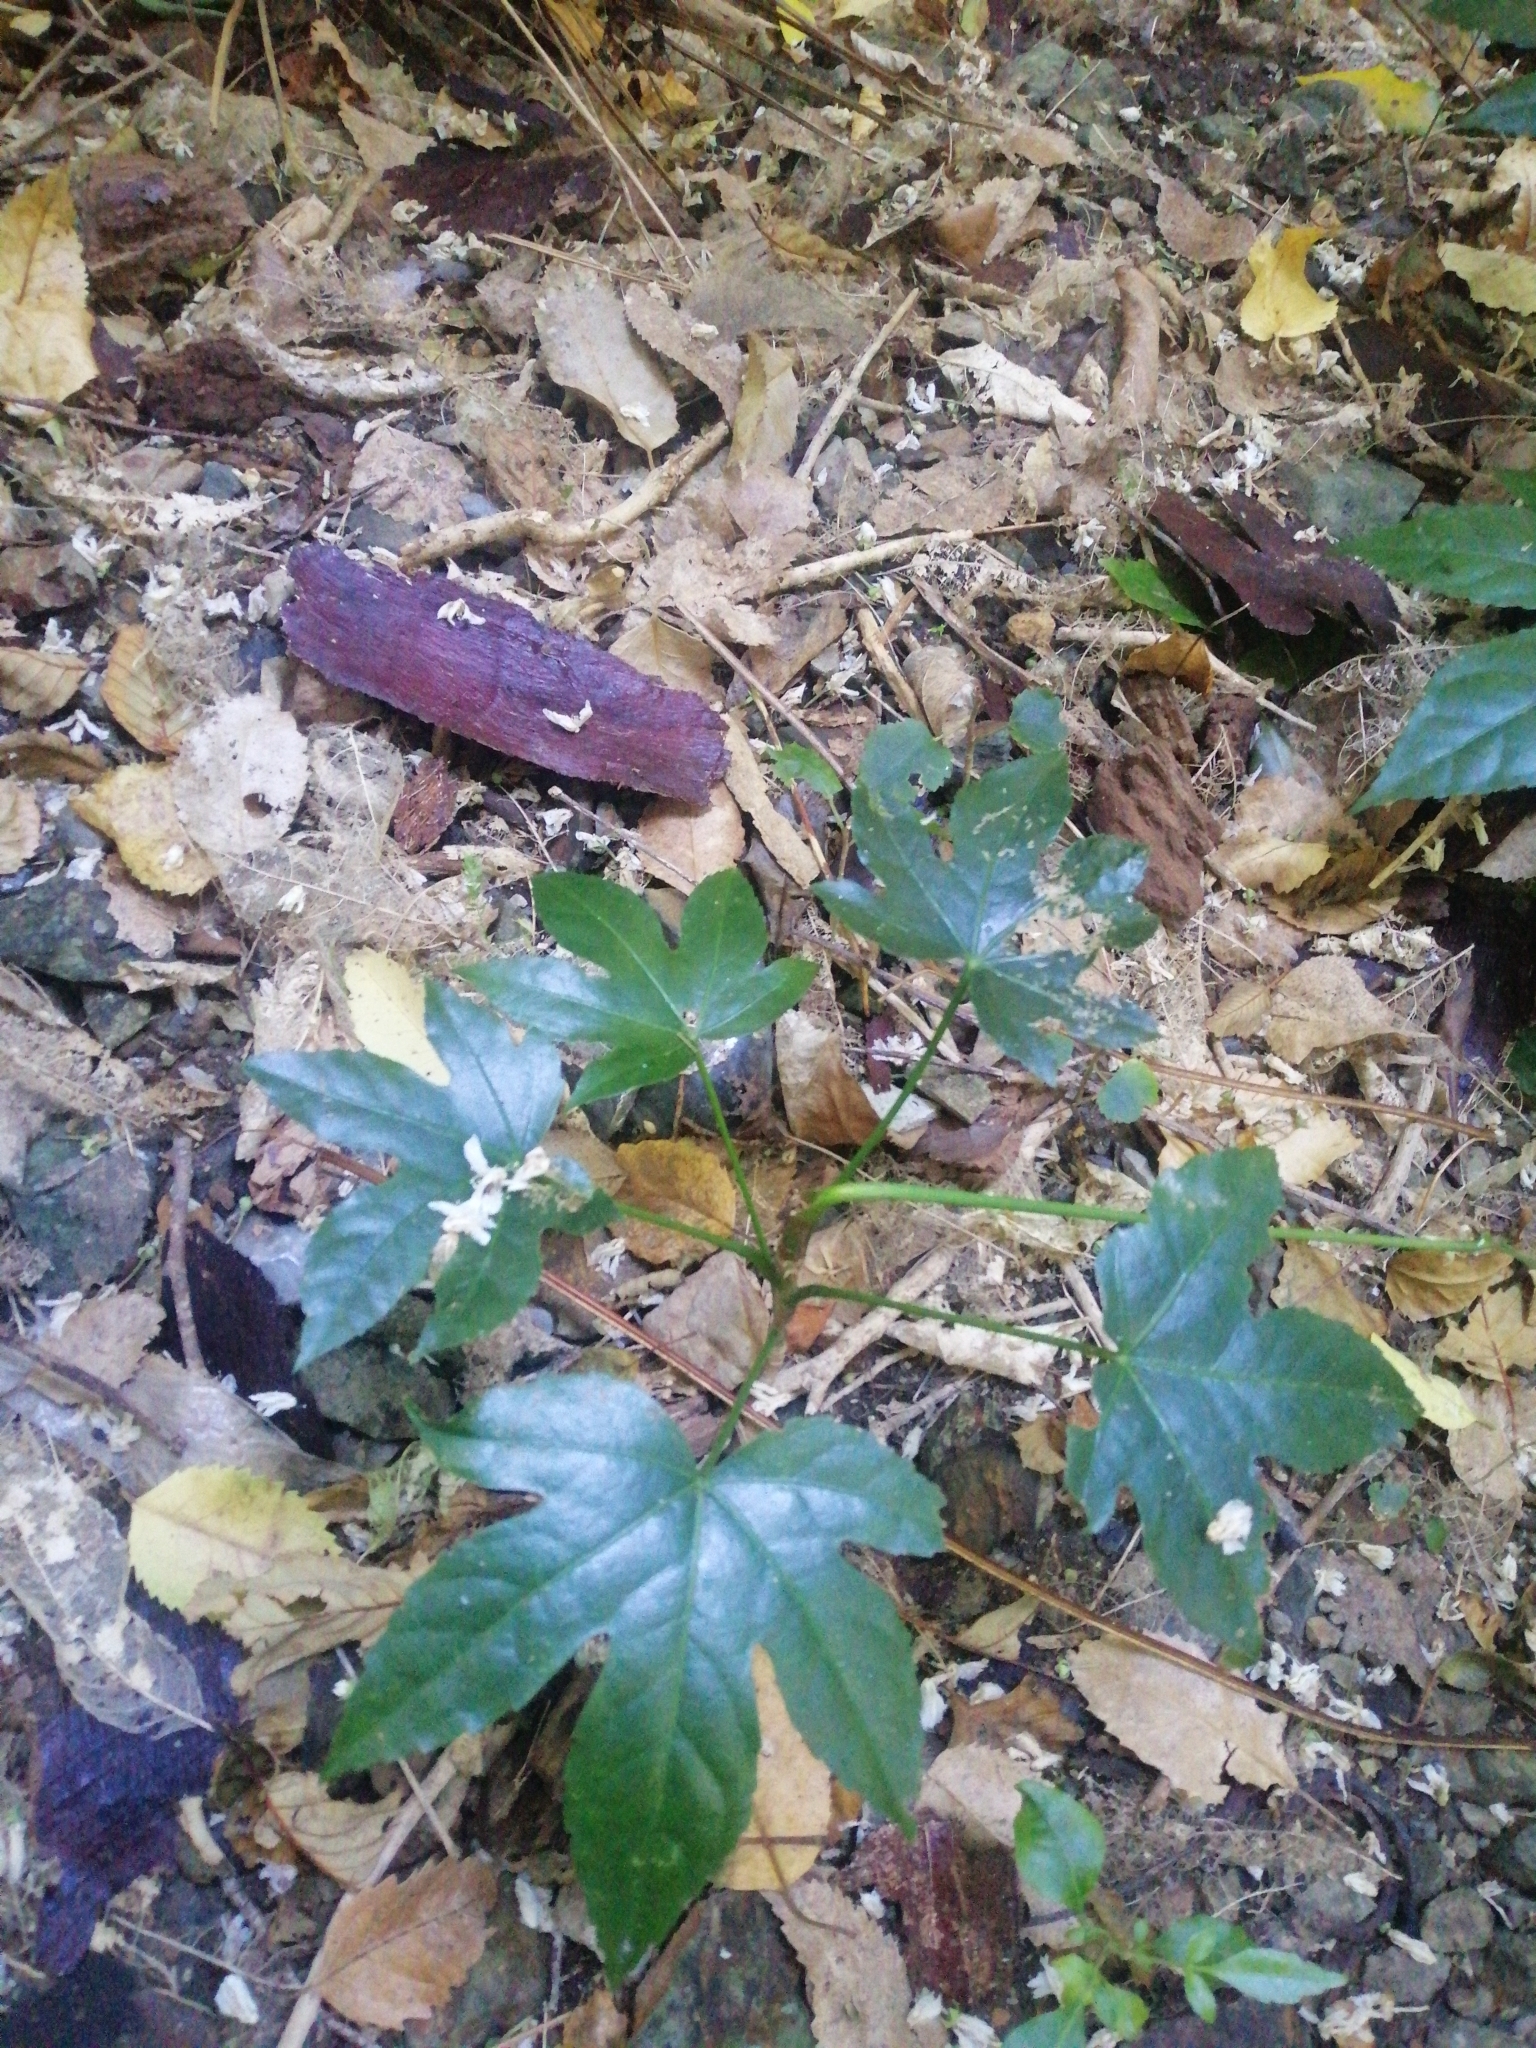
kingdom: Plantae
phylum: Tracheophyta
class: Magnoliopsida
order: Apiales
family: Araliaceae
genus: Fatsia
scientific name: Fatsia japonica
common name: Fatsia
